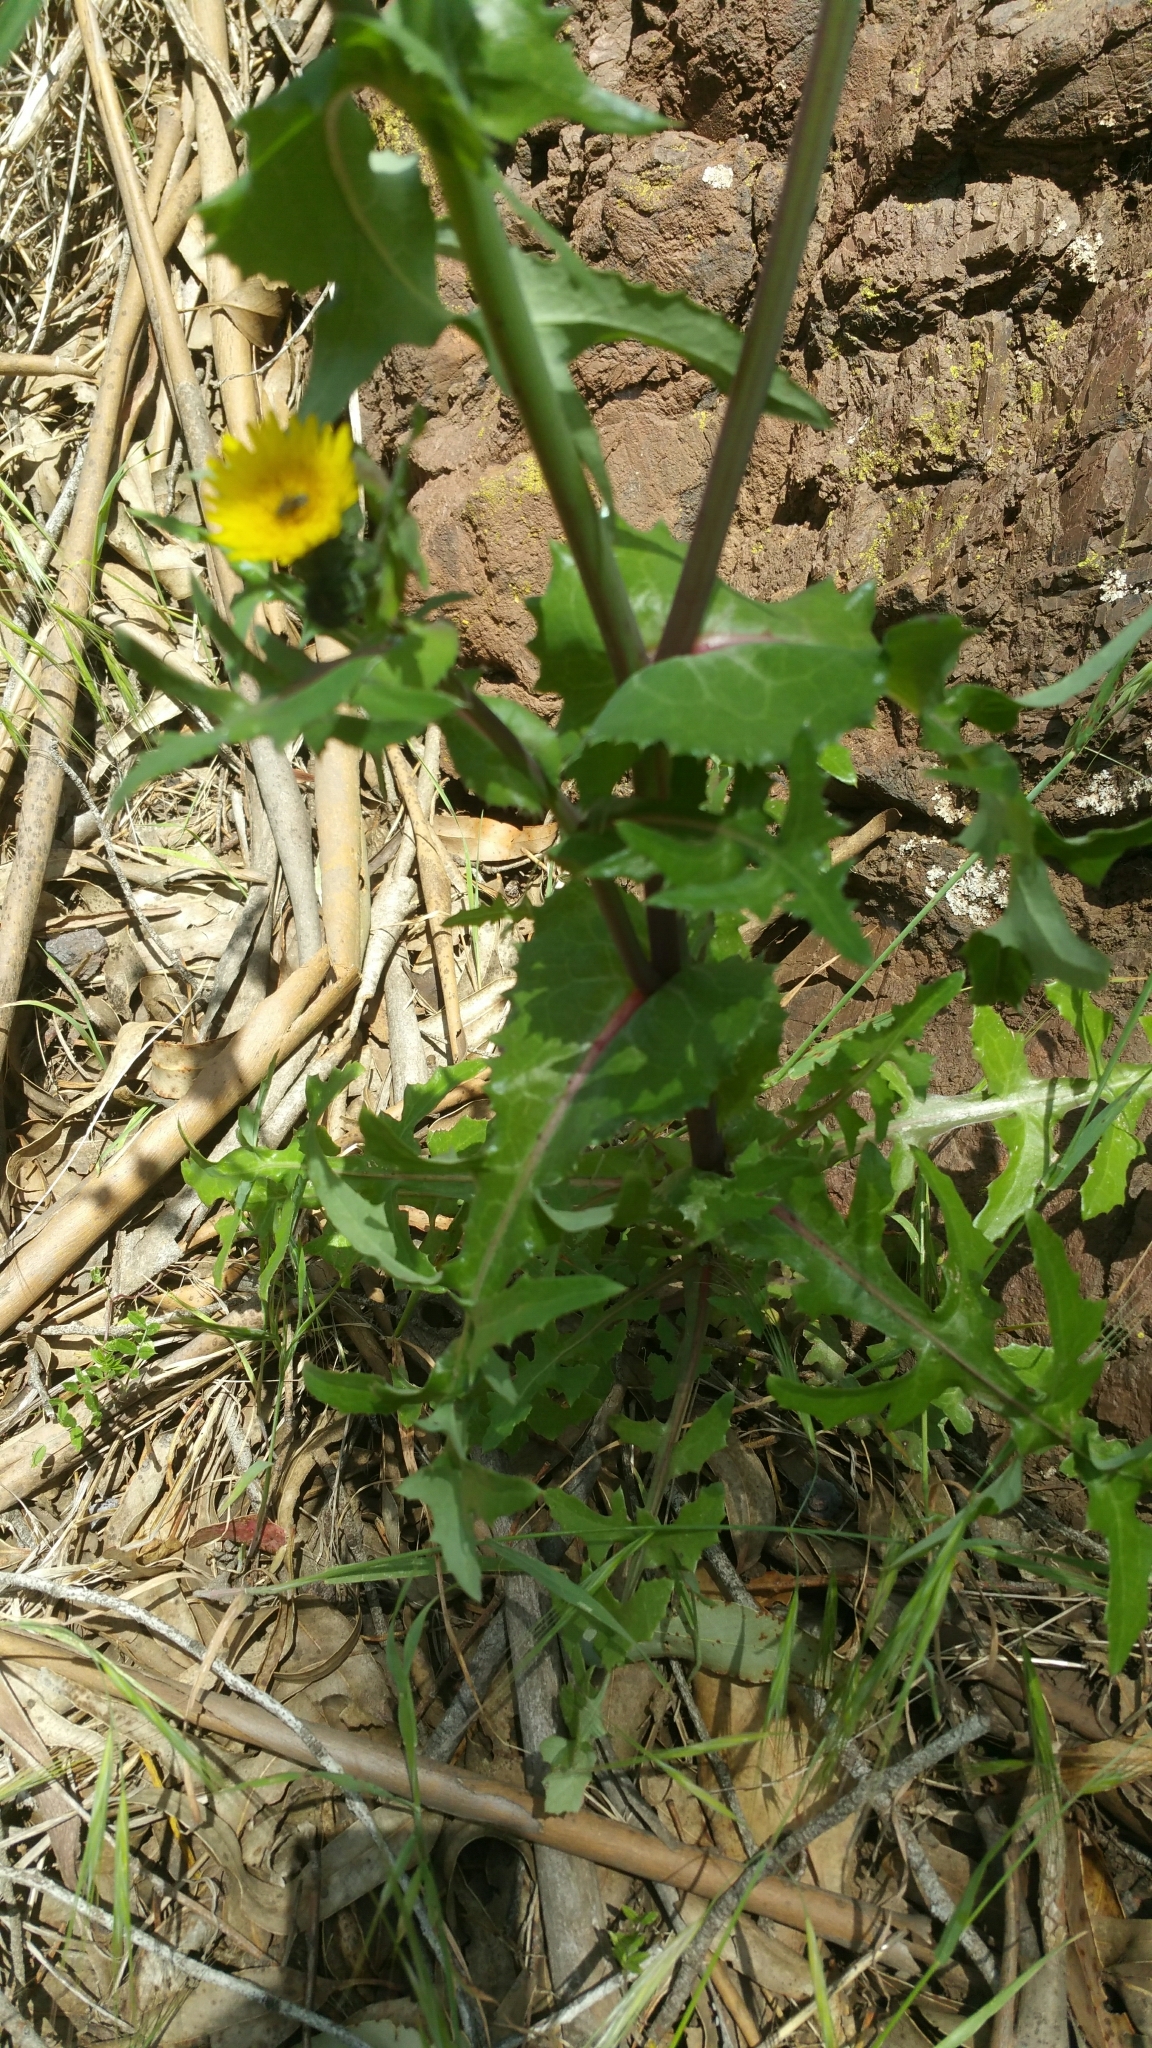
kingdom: Plantae
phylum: Tracheophyta
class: Magnoliopsida
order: Asterales
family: Asteraceae
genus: Sonchus
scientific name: Sonchus oleraceus
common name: Common sowthistle
